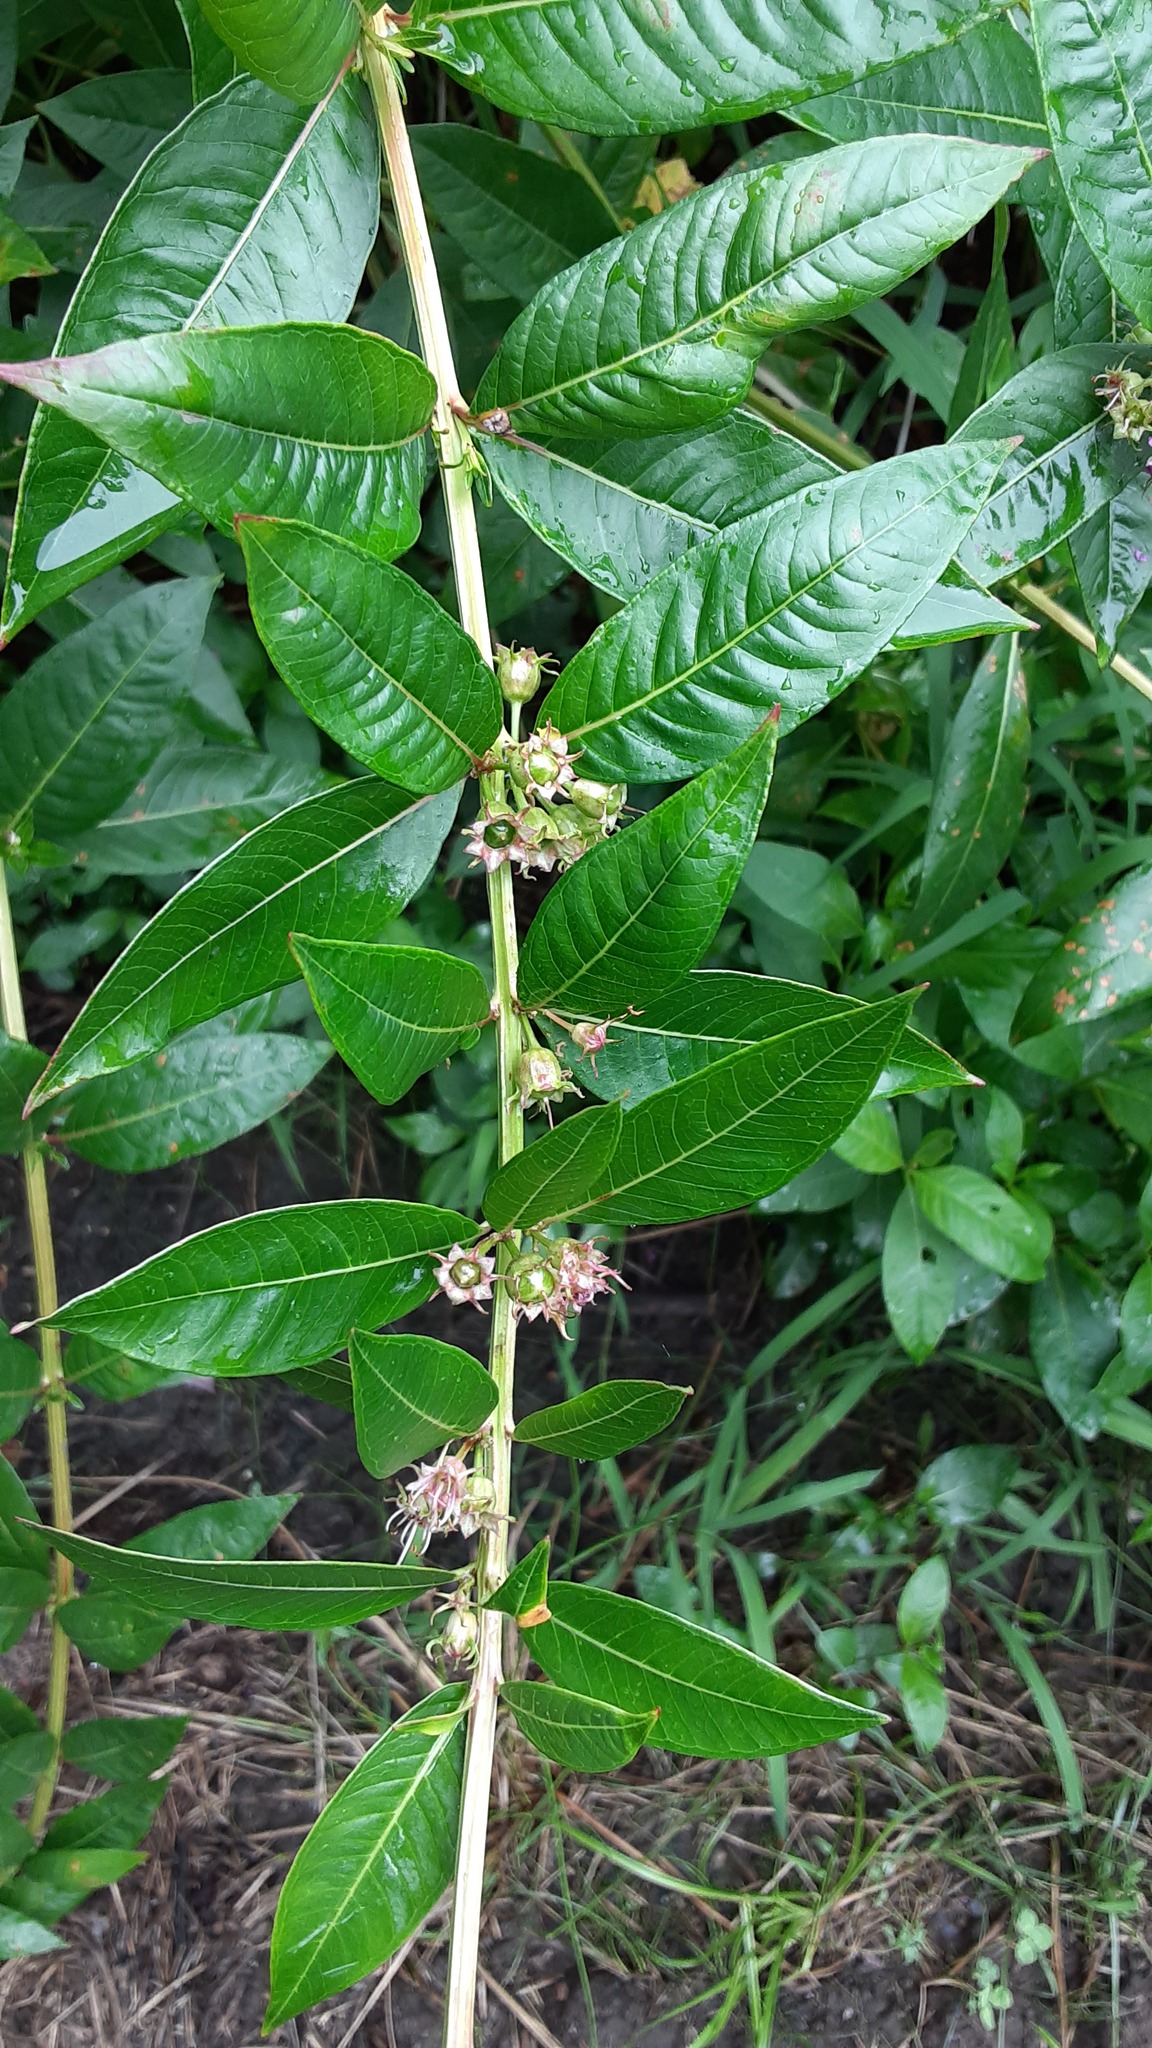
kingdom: Plantae
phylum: Tracheophyta
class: Magnoliopsida
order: Myrtales
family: Lythraceae
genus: Decodon
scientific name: Decodon verticillatus
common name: Hairy swamp loosestrife
